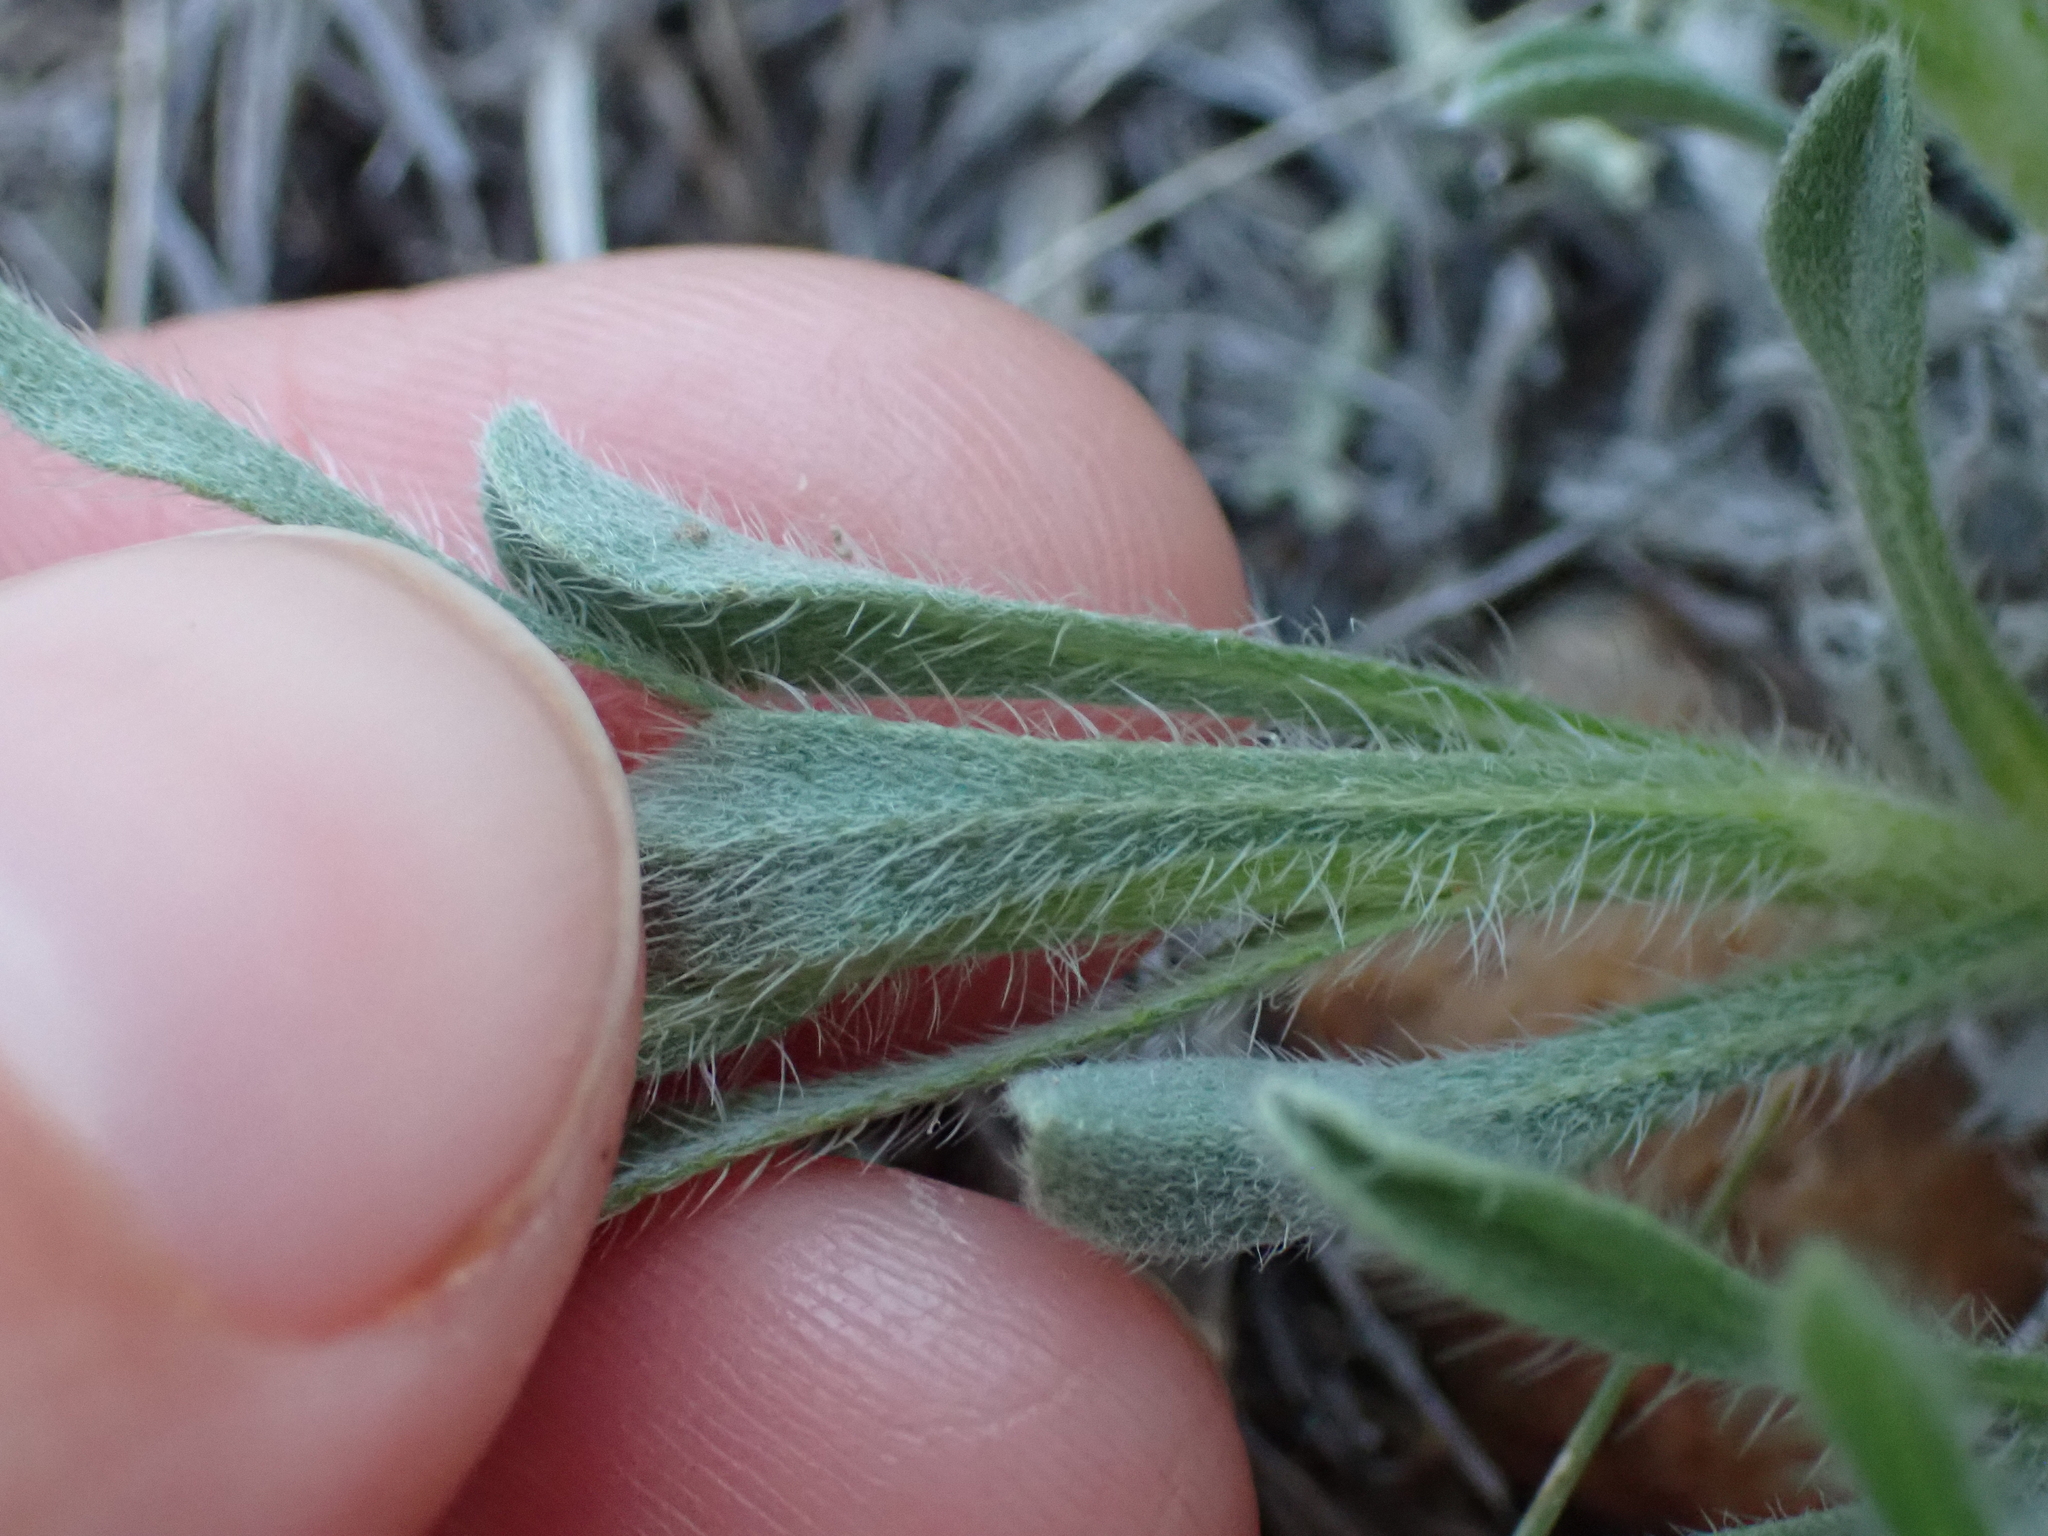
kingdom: Plantae
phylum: Tracheophyta
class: Magnoliopsida
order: Boraginales
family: Boraginaceae
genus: Oreocarya
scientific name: Oreocarya glomerata
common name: Macoun's cryptantha
